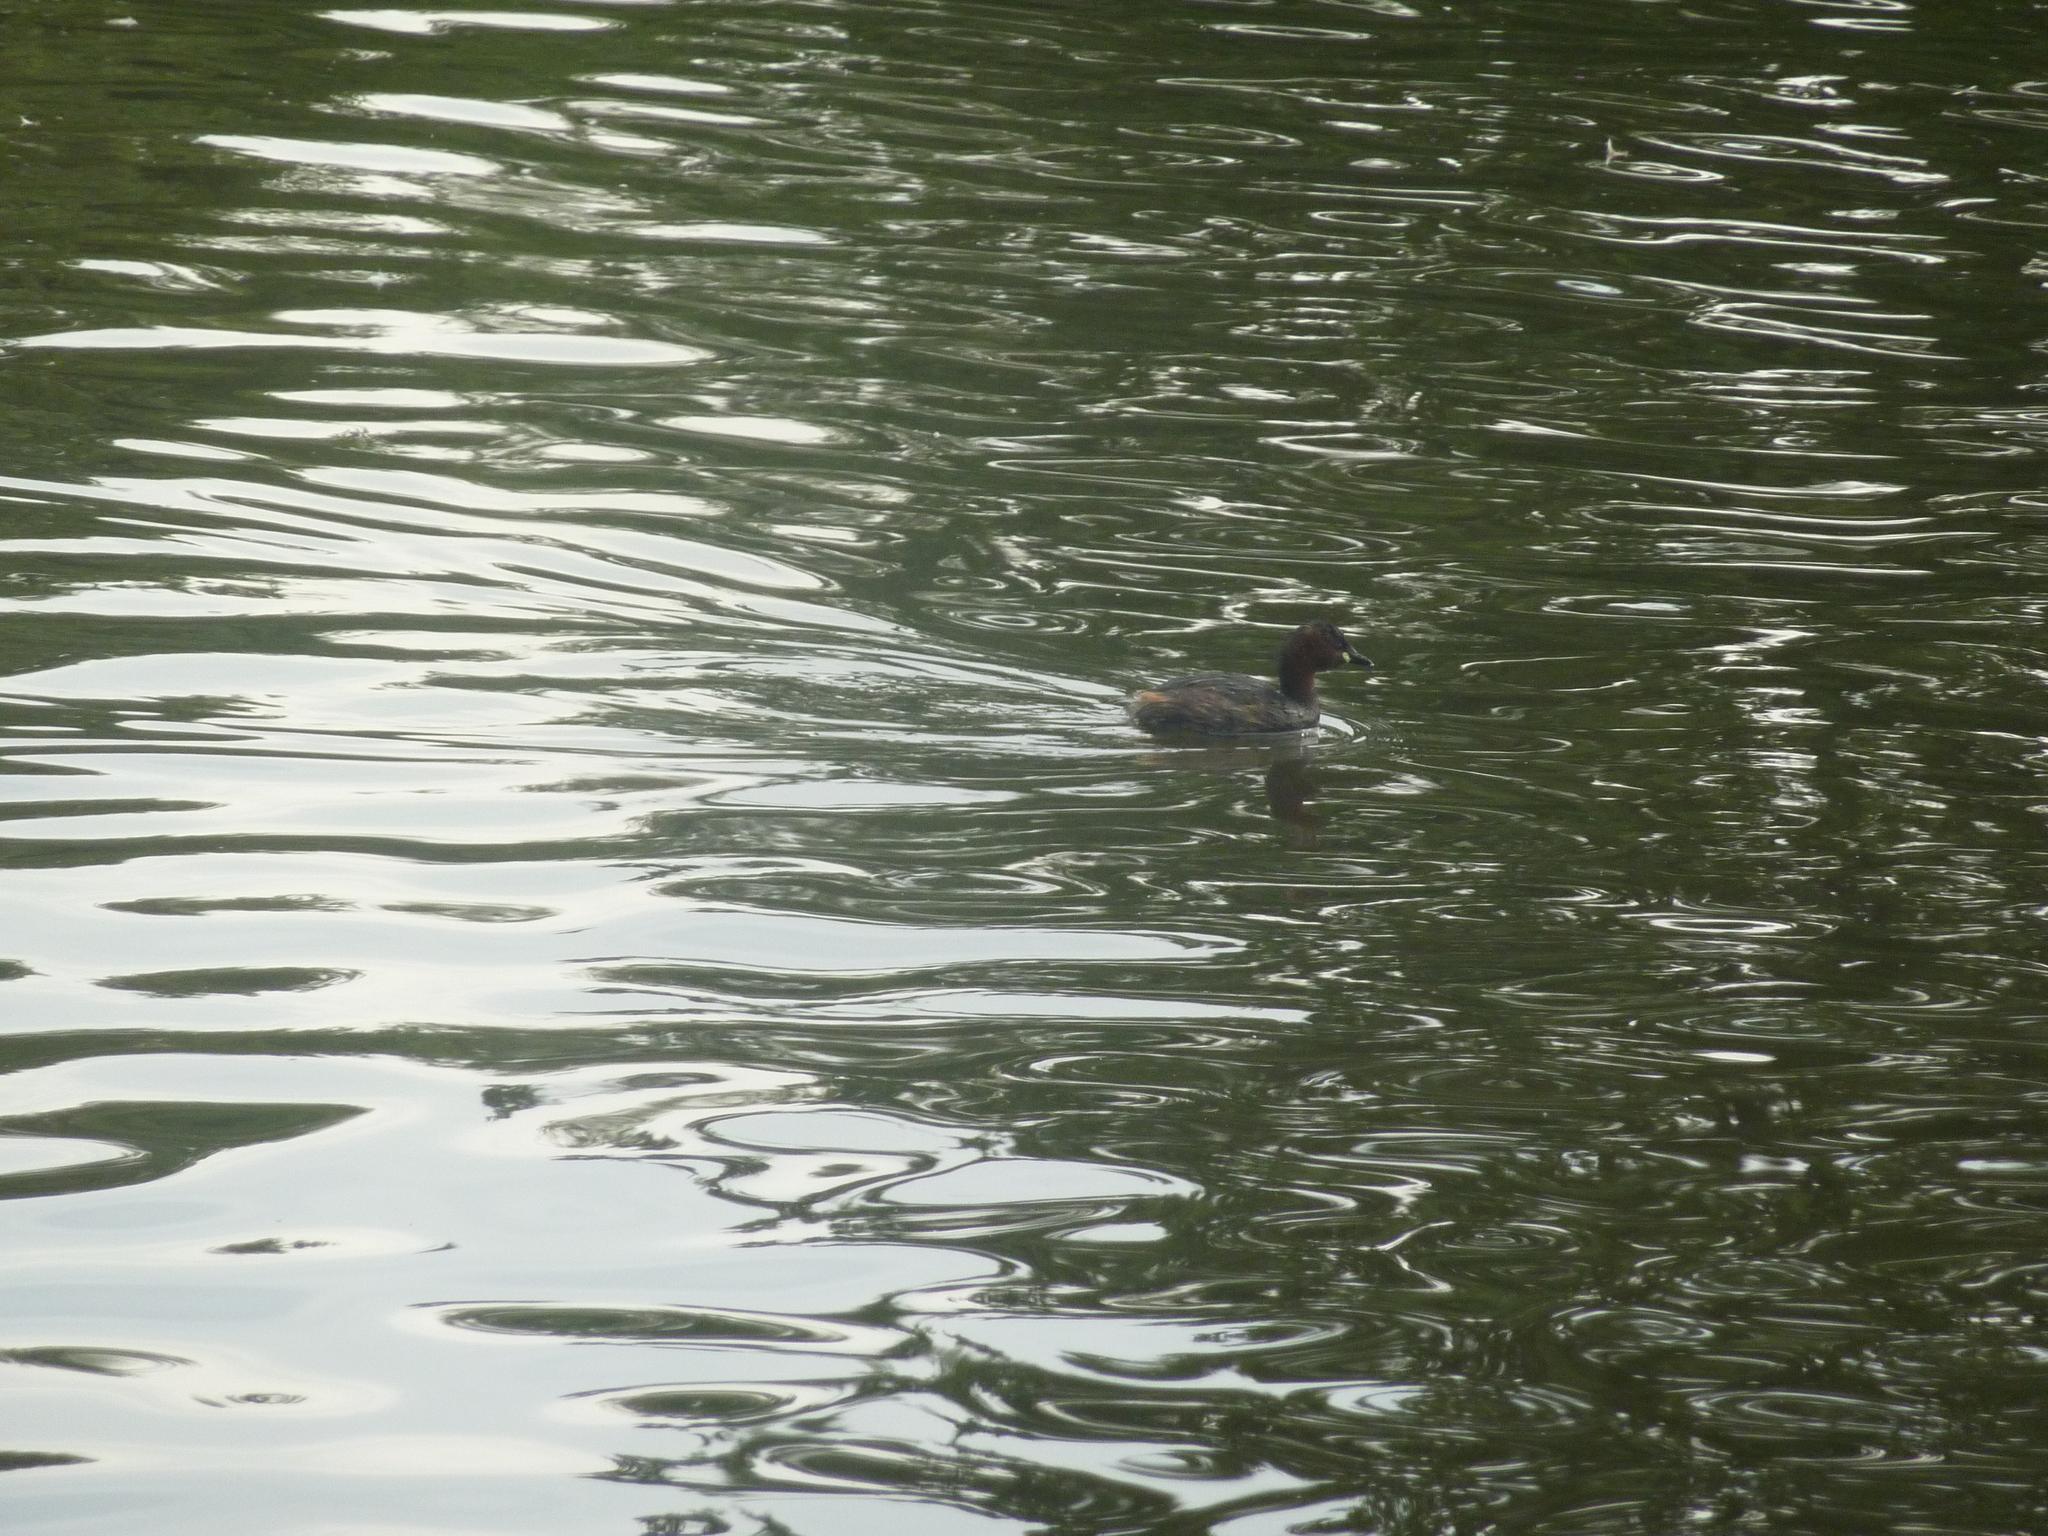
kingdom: Animalia
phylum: Chordata
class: Aves
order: Podicipediformes
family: Podicipedidae
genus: Tachybaptus
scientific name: Tachybaptus ruficollis
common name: Little grebe
